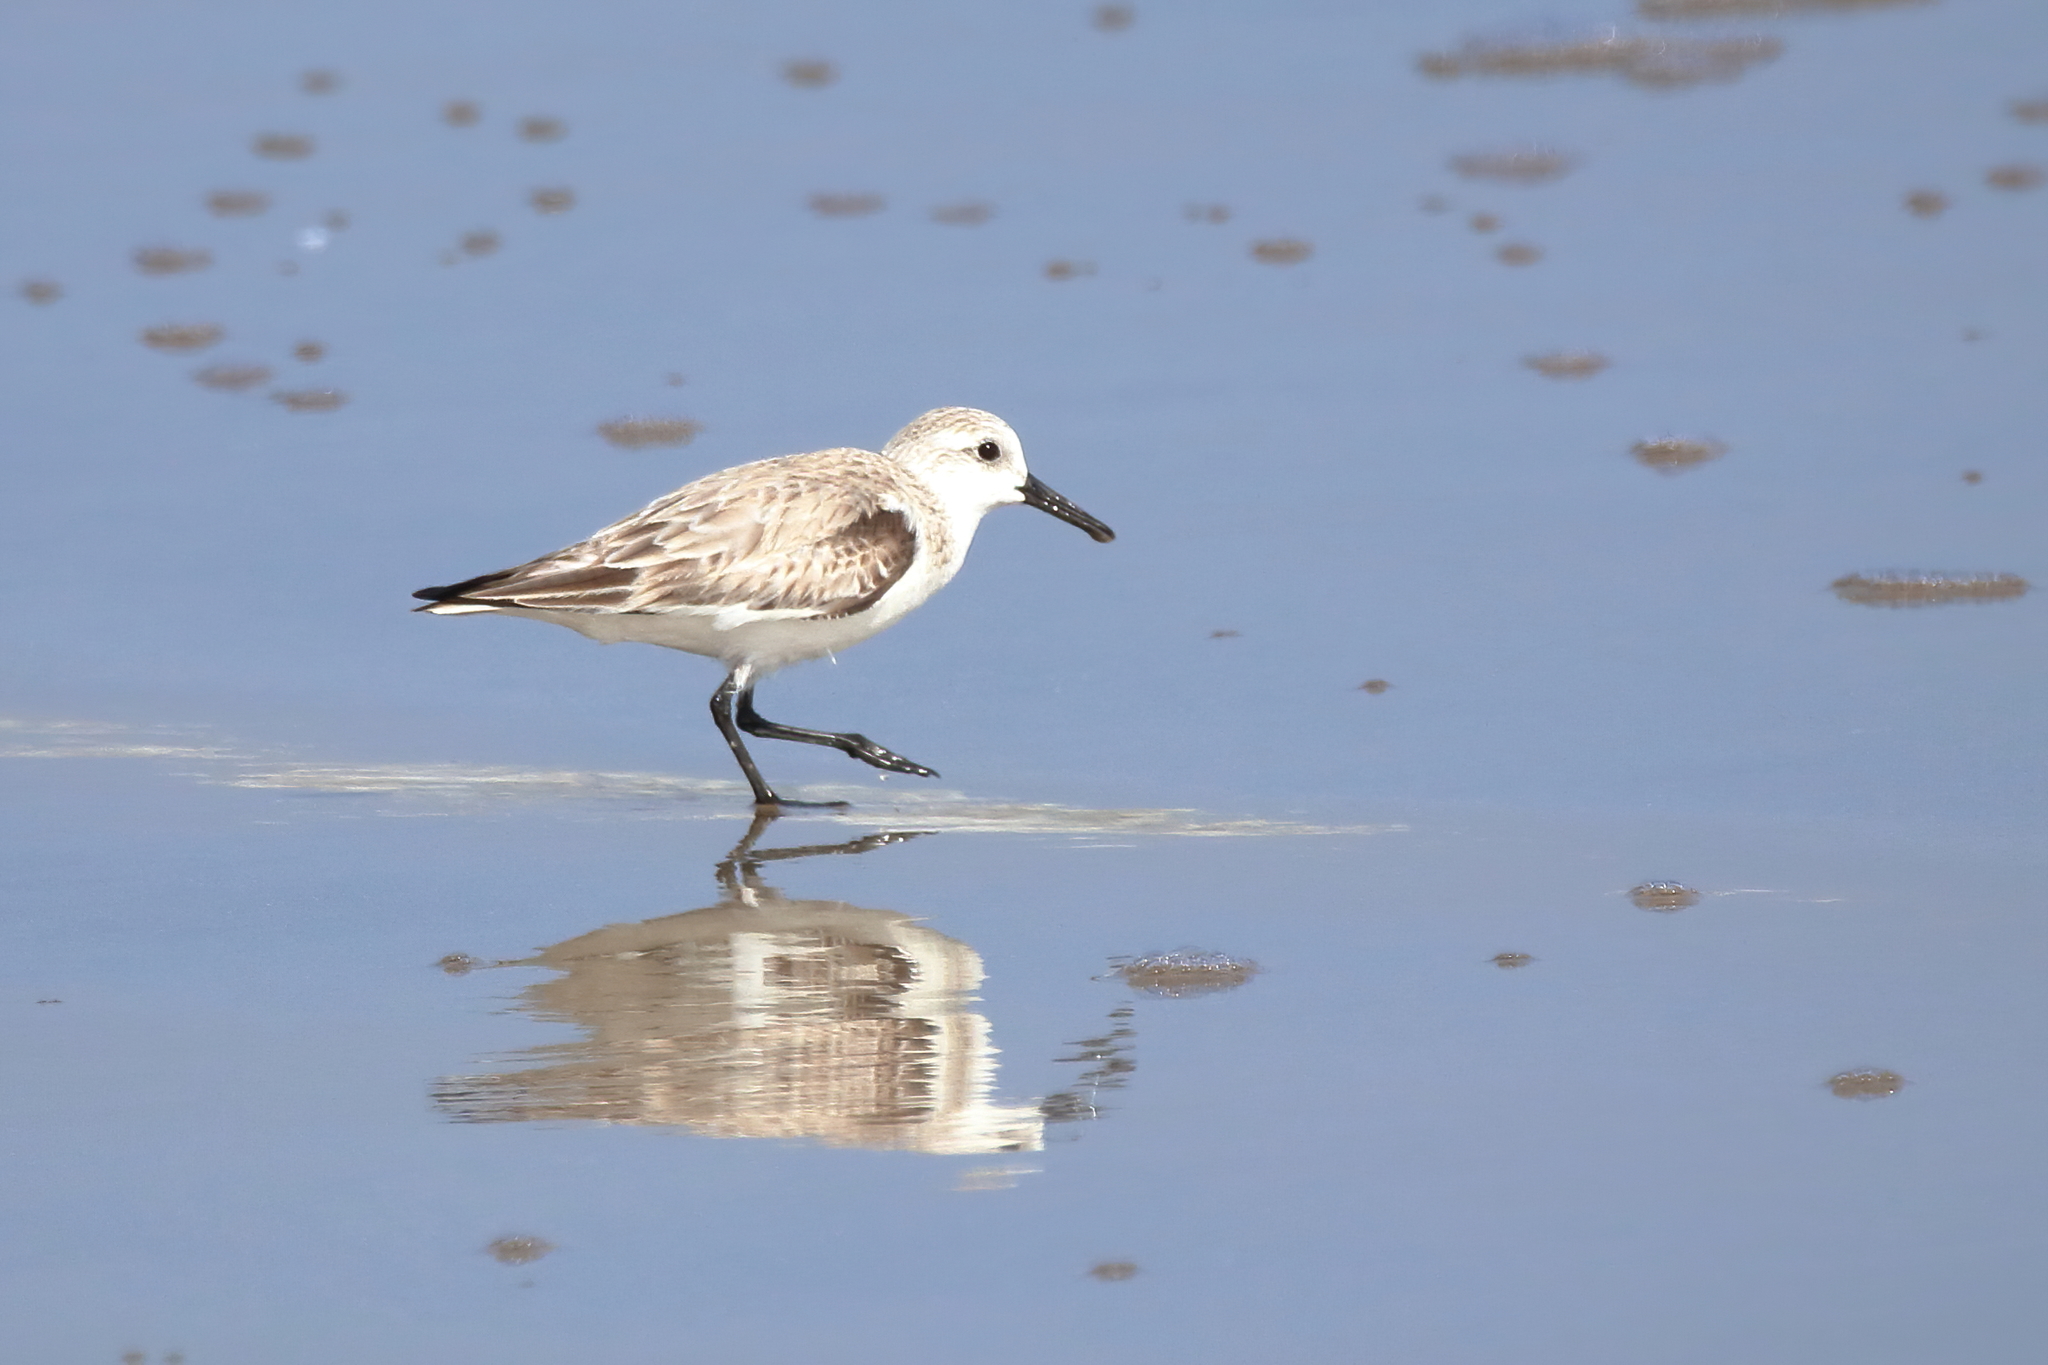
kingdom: Animalia
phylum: Chordata
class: Aves
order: Charadriiformes
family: Scolopacidae
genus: Calidris
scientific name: Calidris alba
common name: Sanderling
